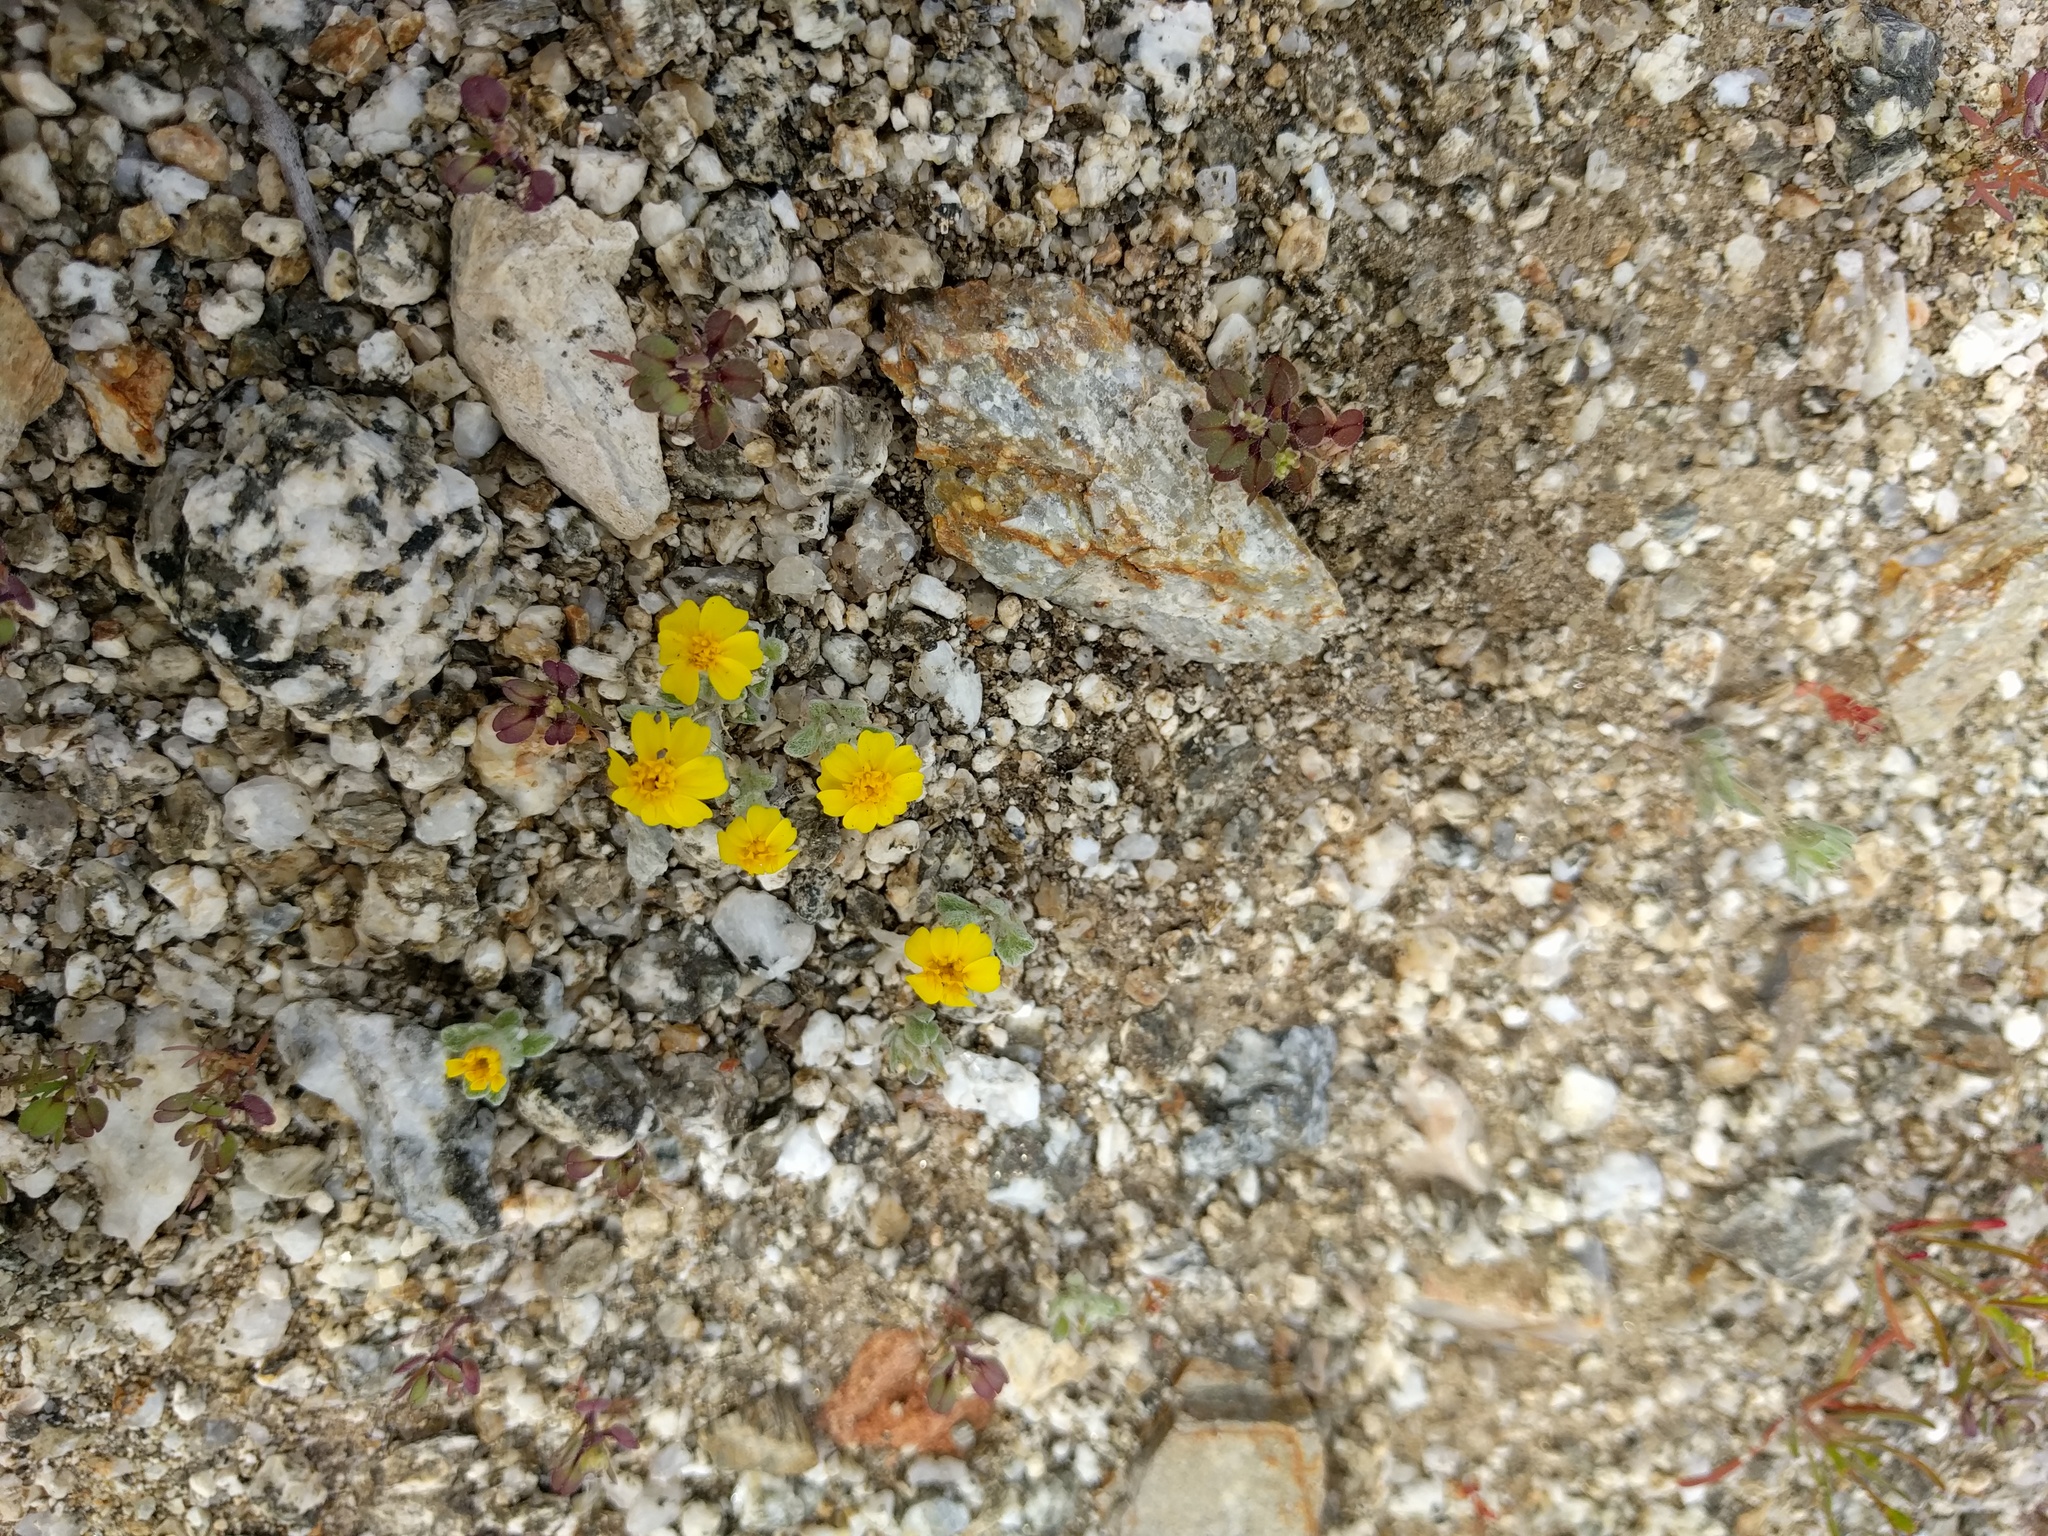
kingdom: Plantae
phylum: Tracheophyta
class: Magnoliopsida
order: Asterales
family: Asteraceae
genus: Eriophyllum
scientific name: Eriophyllum wallacei
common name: Wallace's woolly daisy
